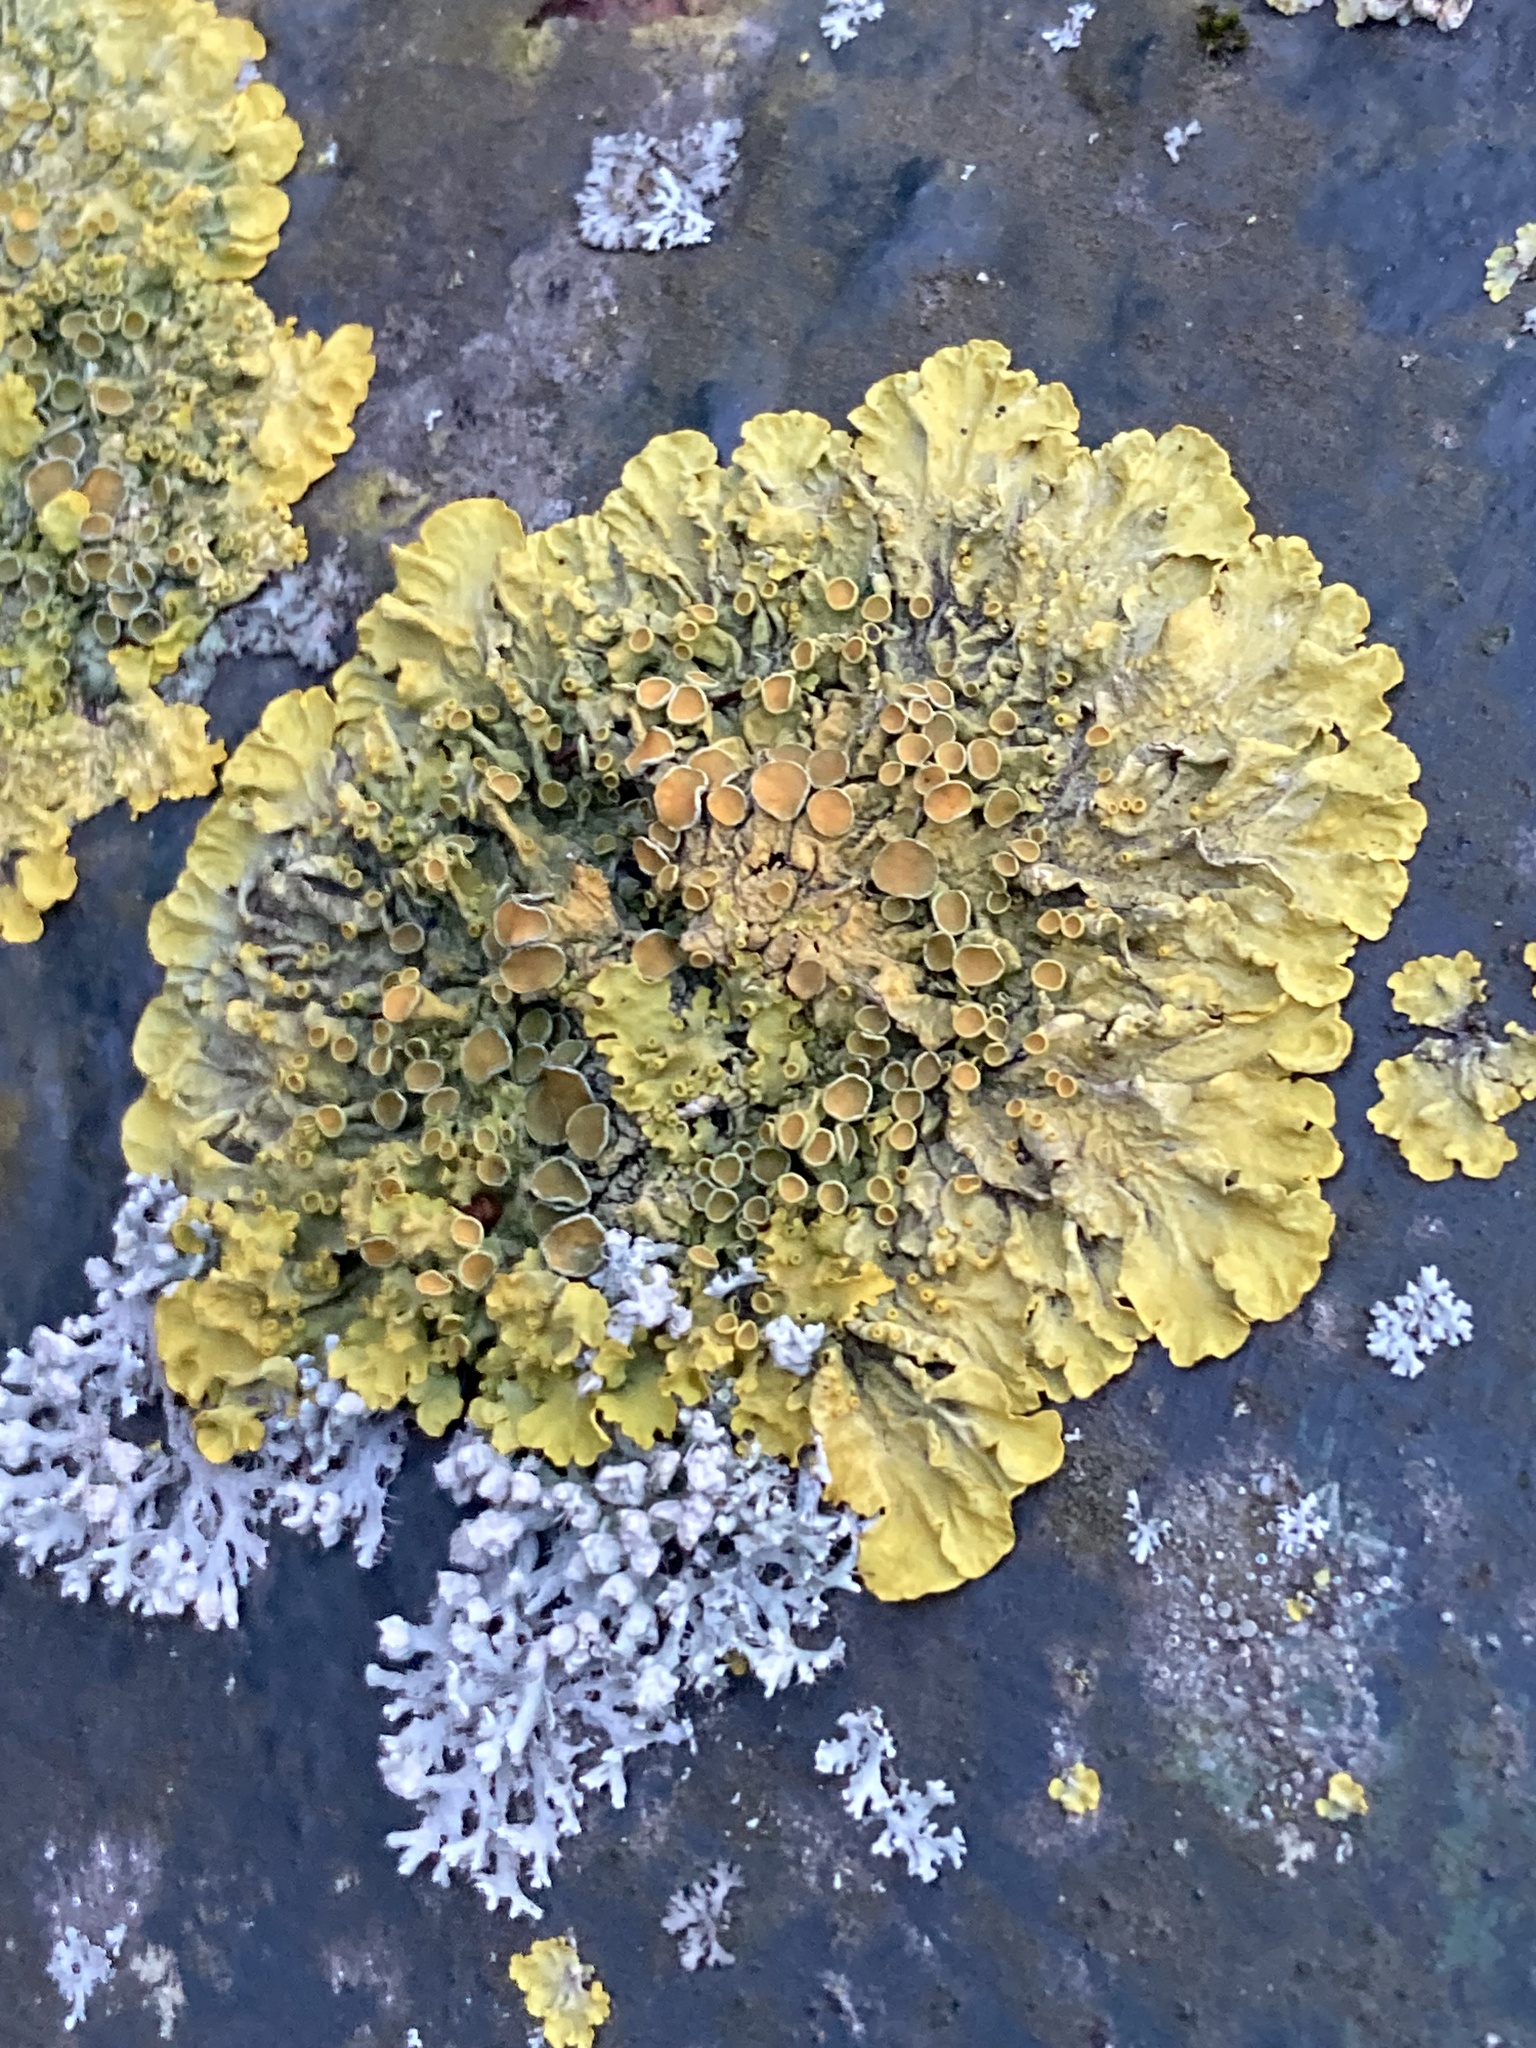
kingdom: Fungi
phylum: Ascomycota
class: Lecanoromycetes
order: Teloschistales
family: Teloschistaceae
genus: Xanthoria
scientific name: Xanthoria parietina
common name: Common orange lichen
